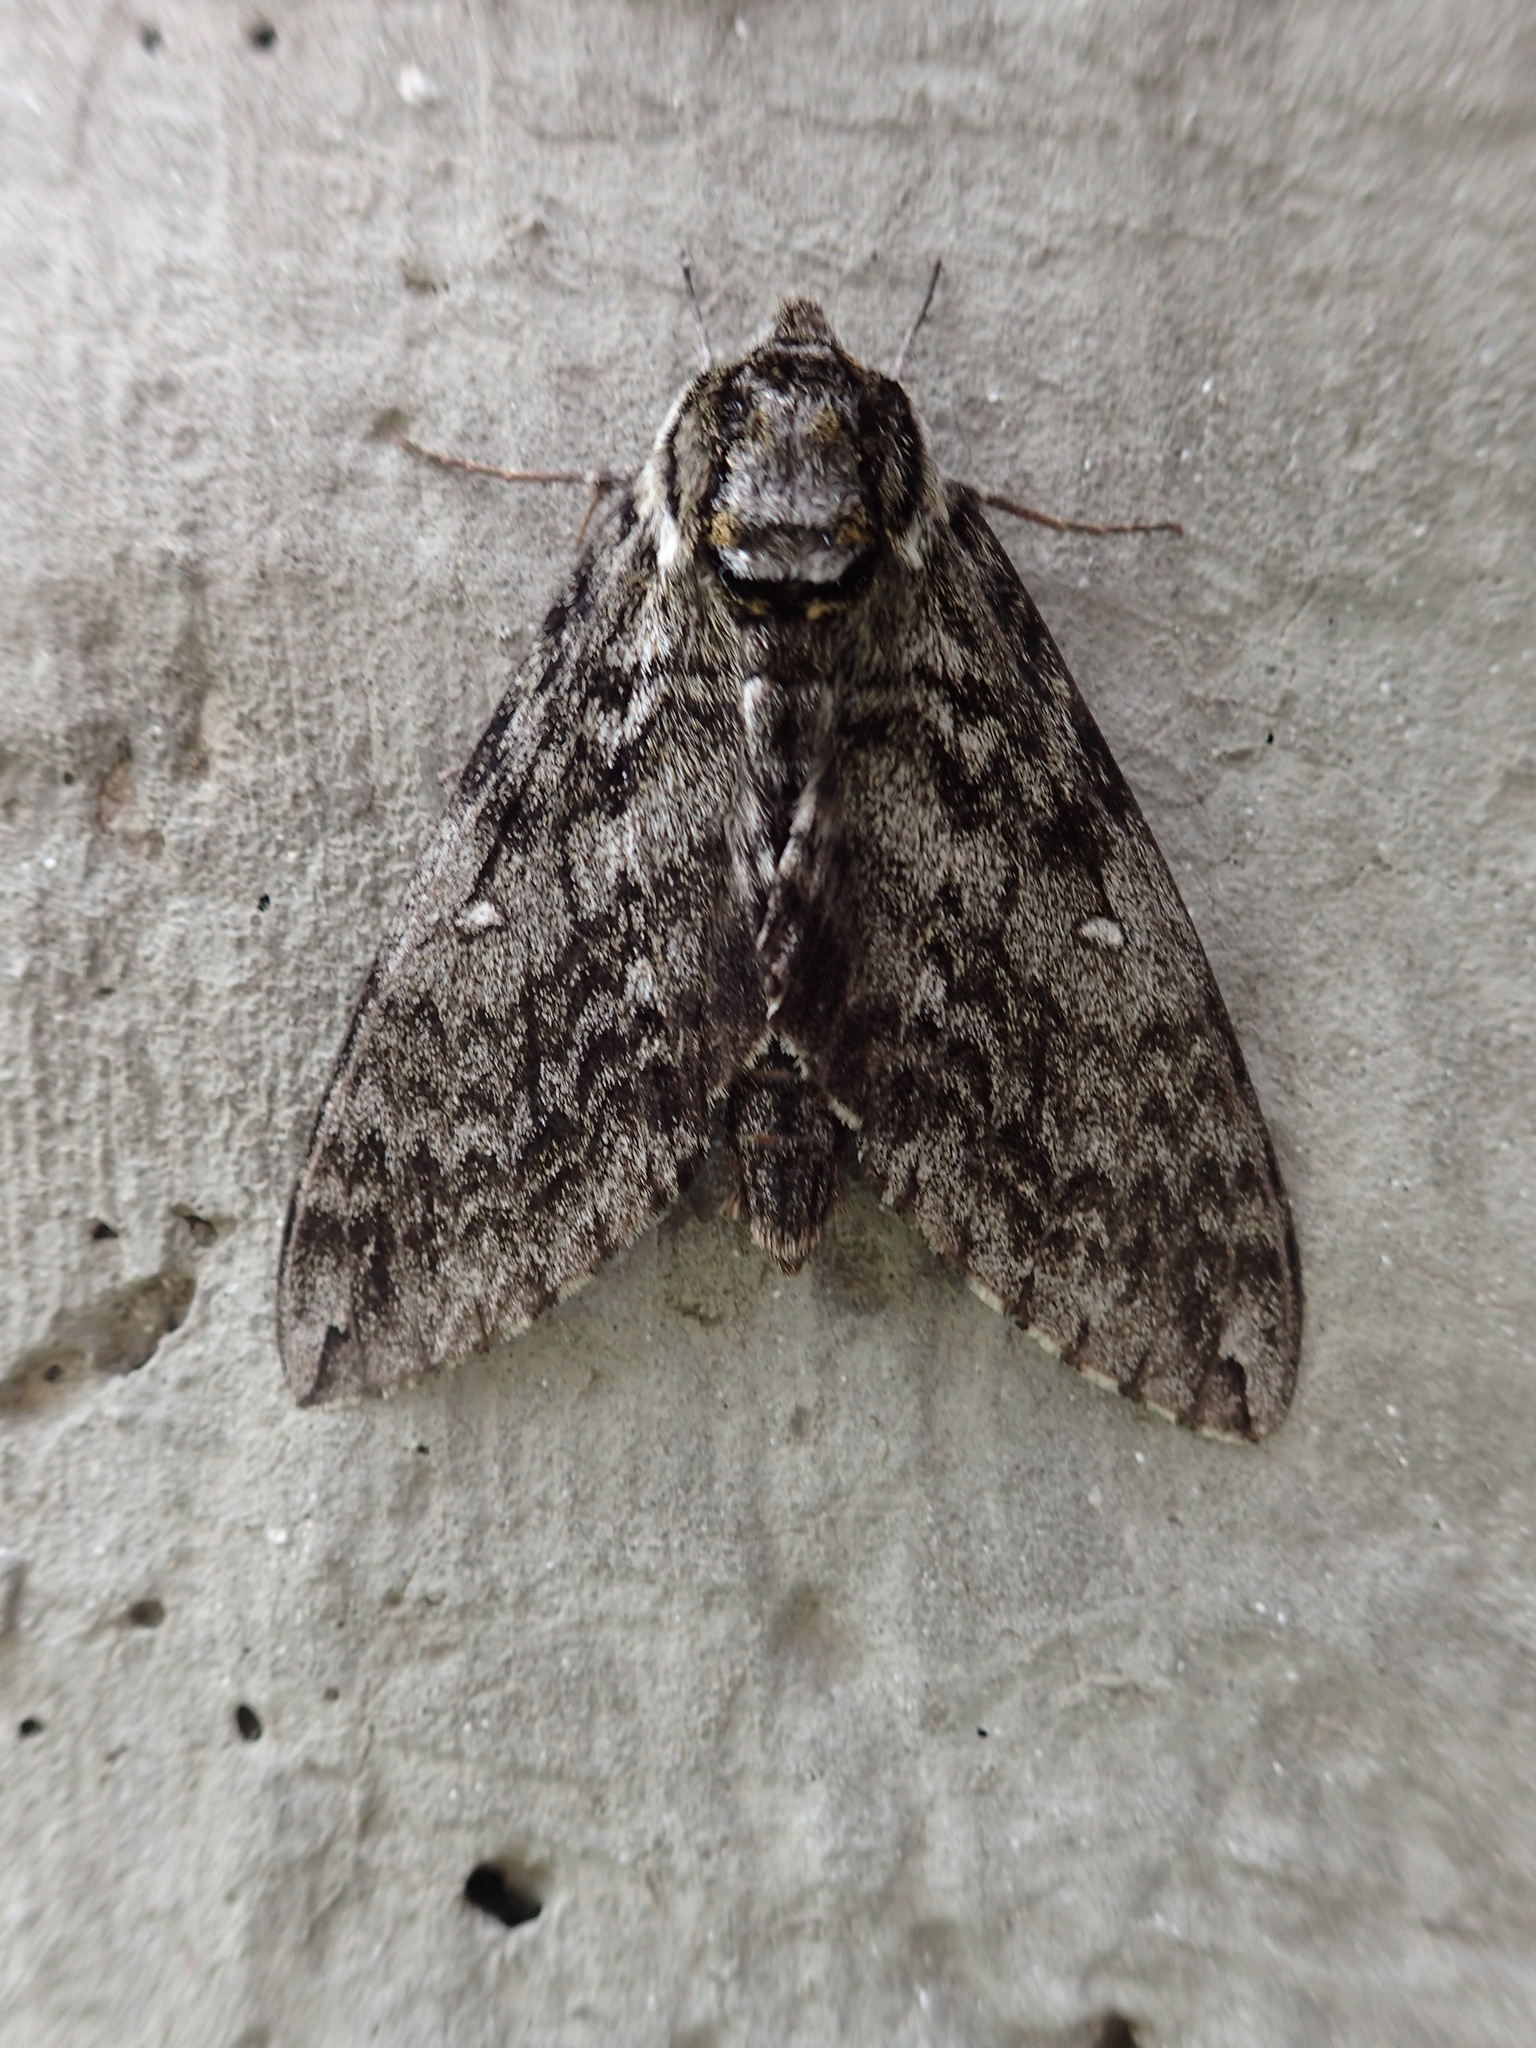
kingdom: Animalia
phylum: Arthropoda
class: Insecta
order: Lepidoptera
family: Sphingidae
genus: Ceratomia
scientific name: Ceratomia undulosa
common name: Waved sphinx
